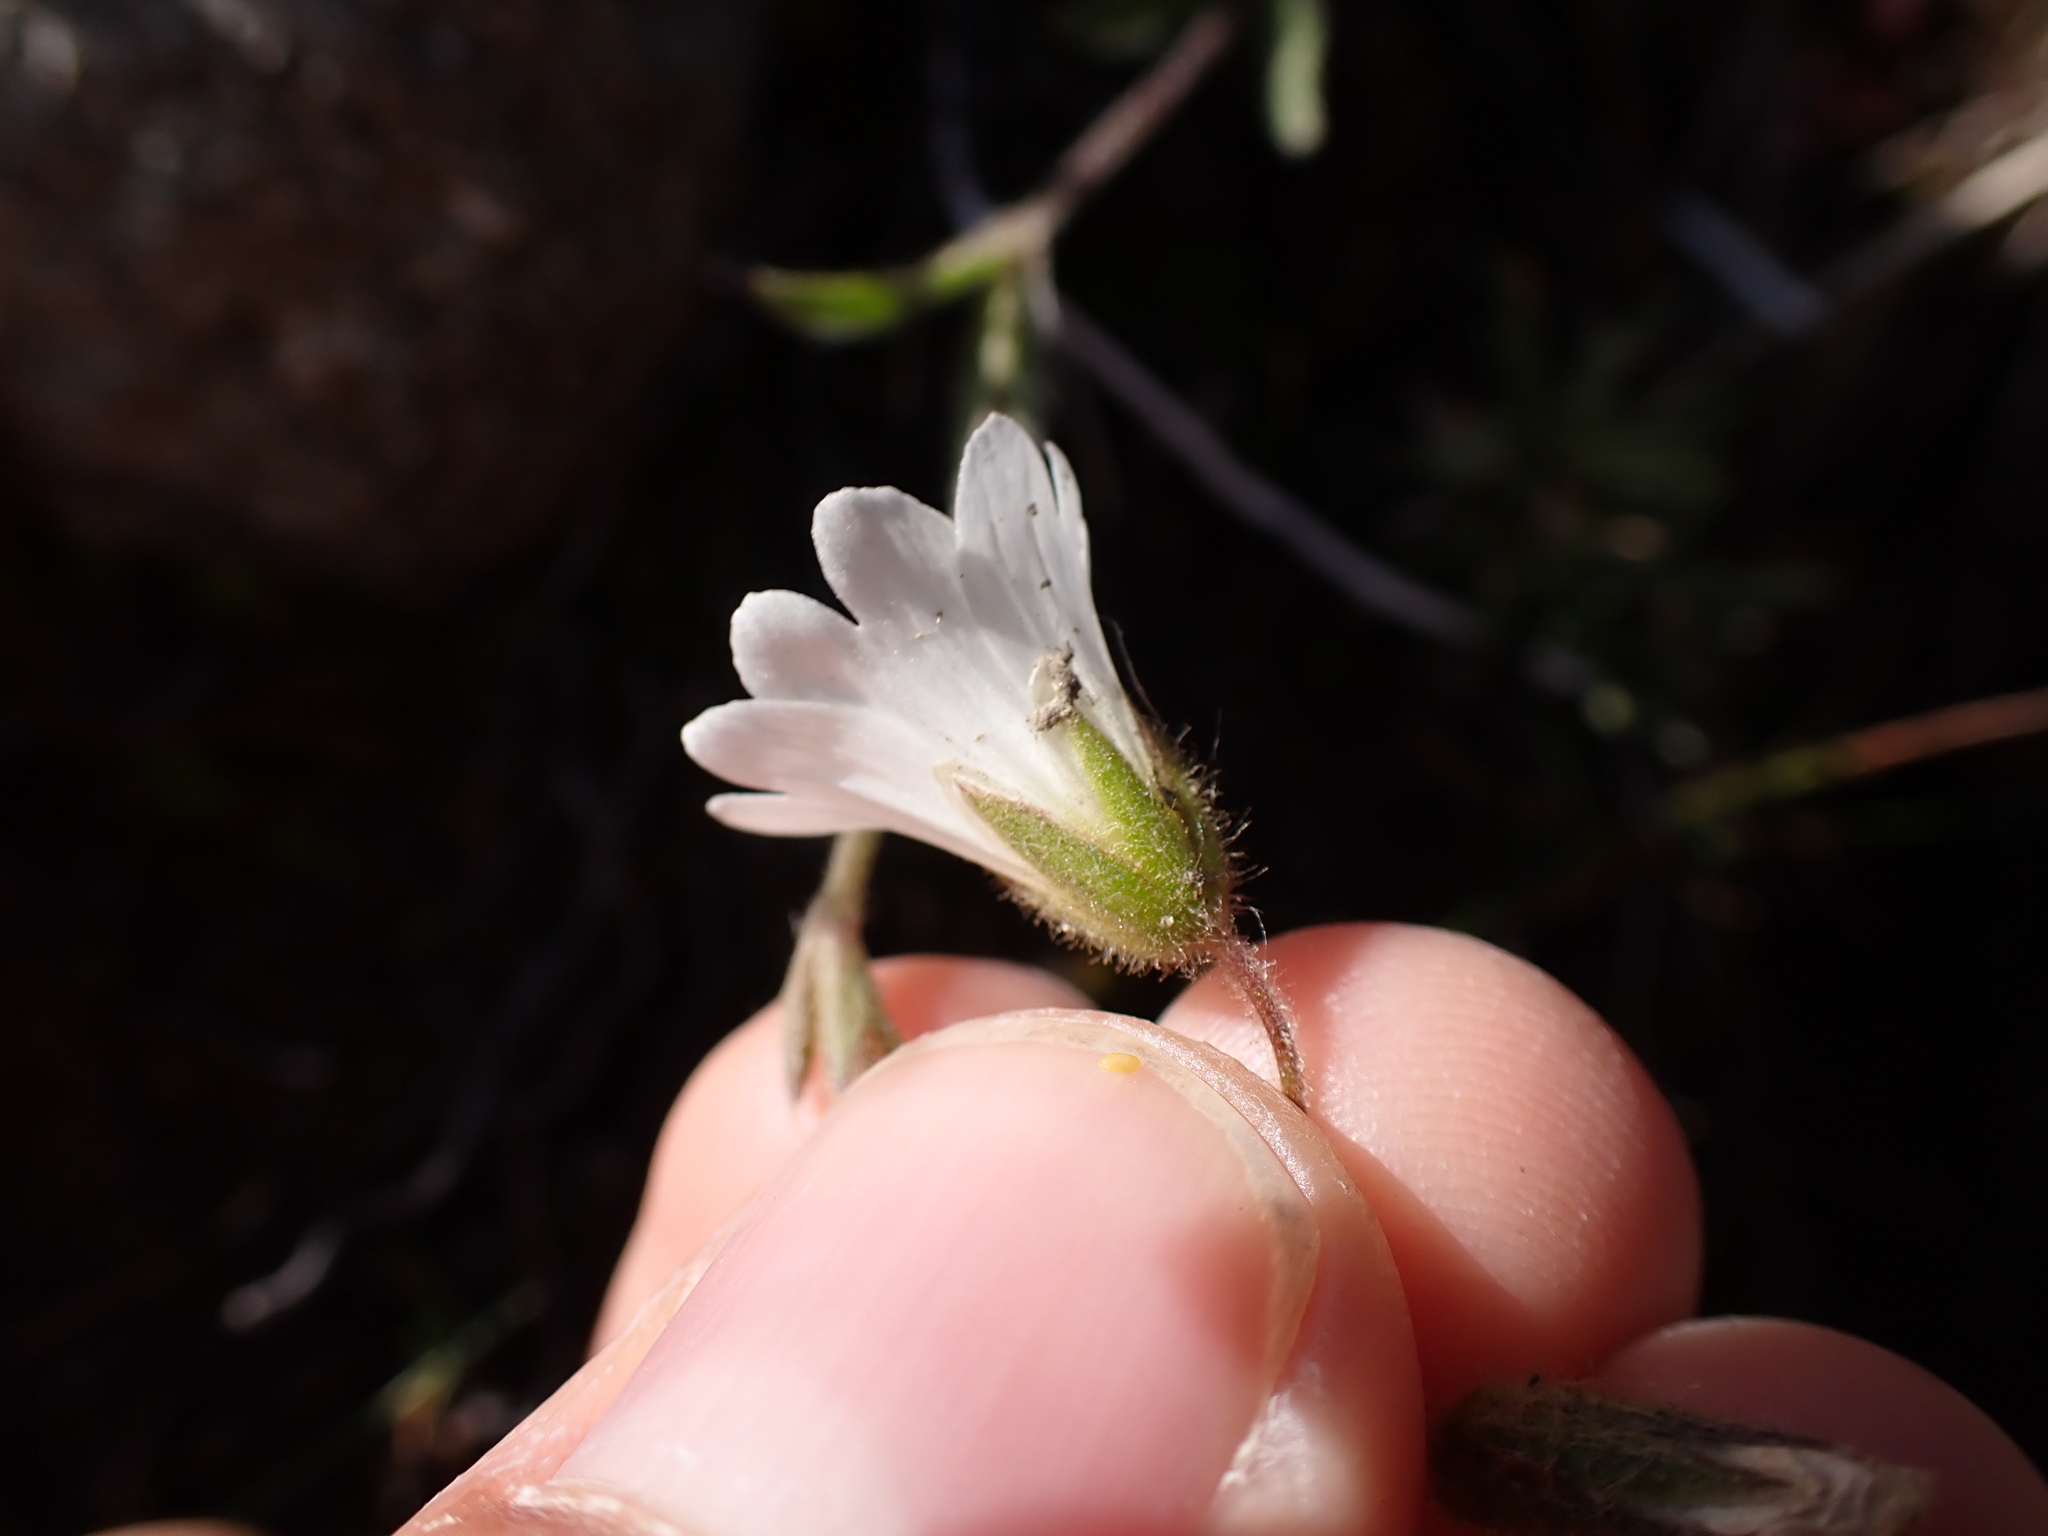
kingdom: Plantae
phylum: Tracheophyta
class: Magnoliopsida
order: Caryophyllales
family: Caryophyllaceae
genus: Cerastium
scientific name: Cerastium alpinum
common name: Alpine mouse-ear
